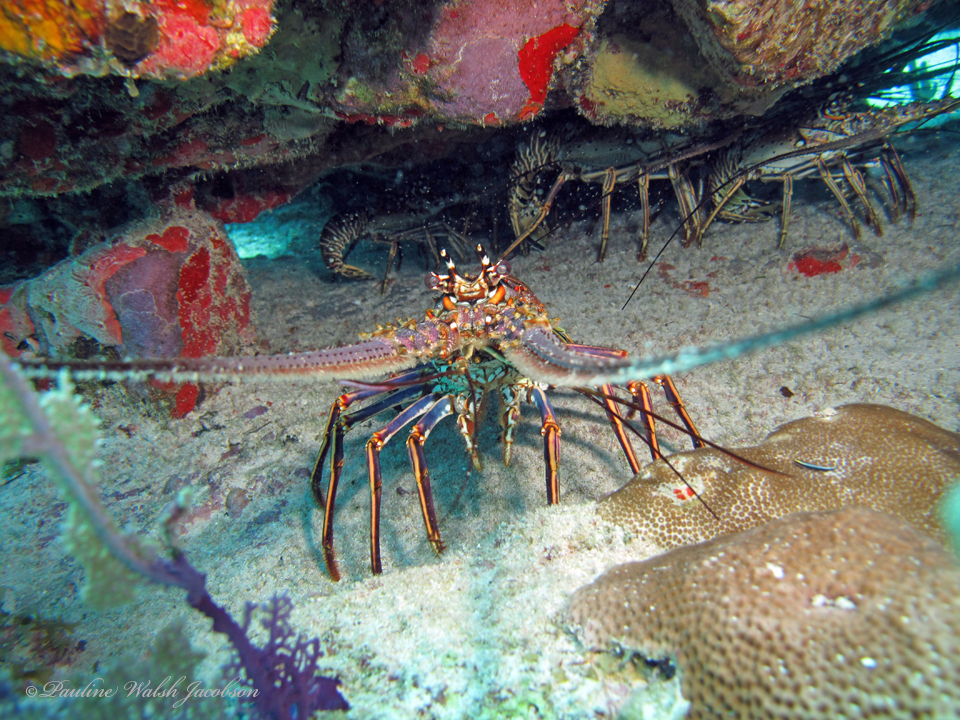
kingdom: Animalia
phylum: Arthropoda
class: Malacostraca
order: Decapoda
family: Palinuridae
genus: Panulirus
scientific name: Panulirus argus
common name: Caribbean spiny lobster
